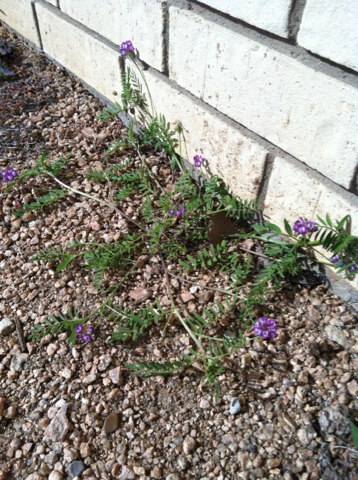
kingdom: Plantae
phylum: Tracheophyta
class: Magnoliopsida
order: Fabales
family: Fabaceae
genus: Astragalus
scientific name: Astragalus nuttallianus
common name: Smallflowered milkvetch
